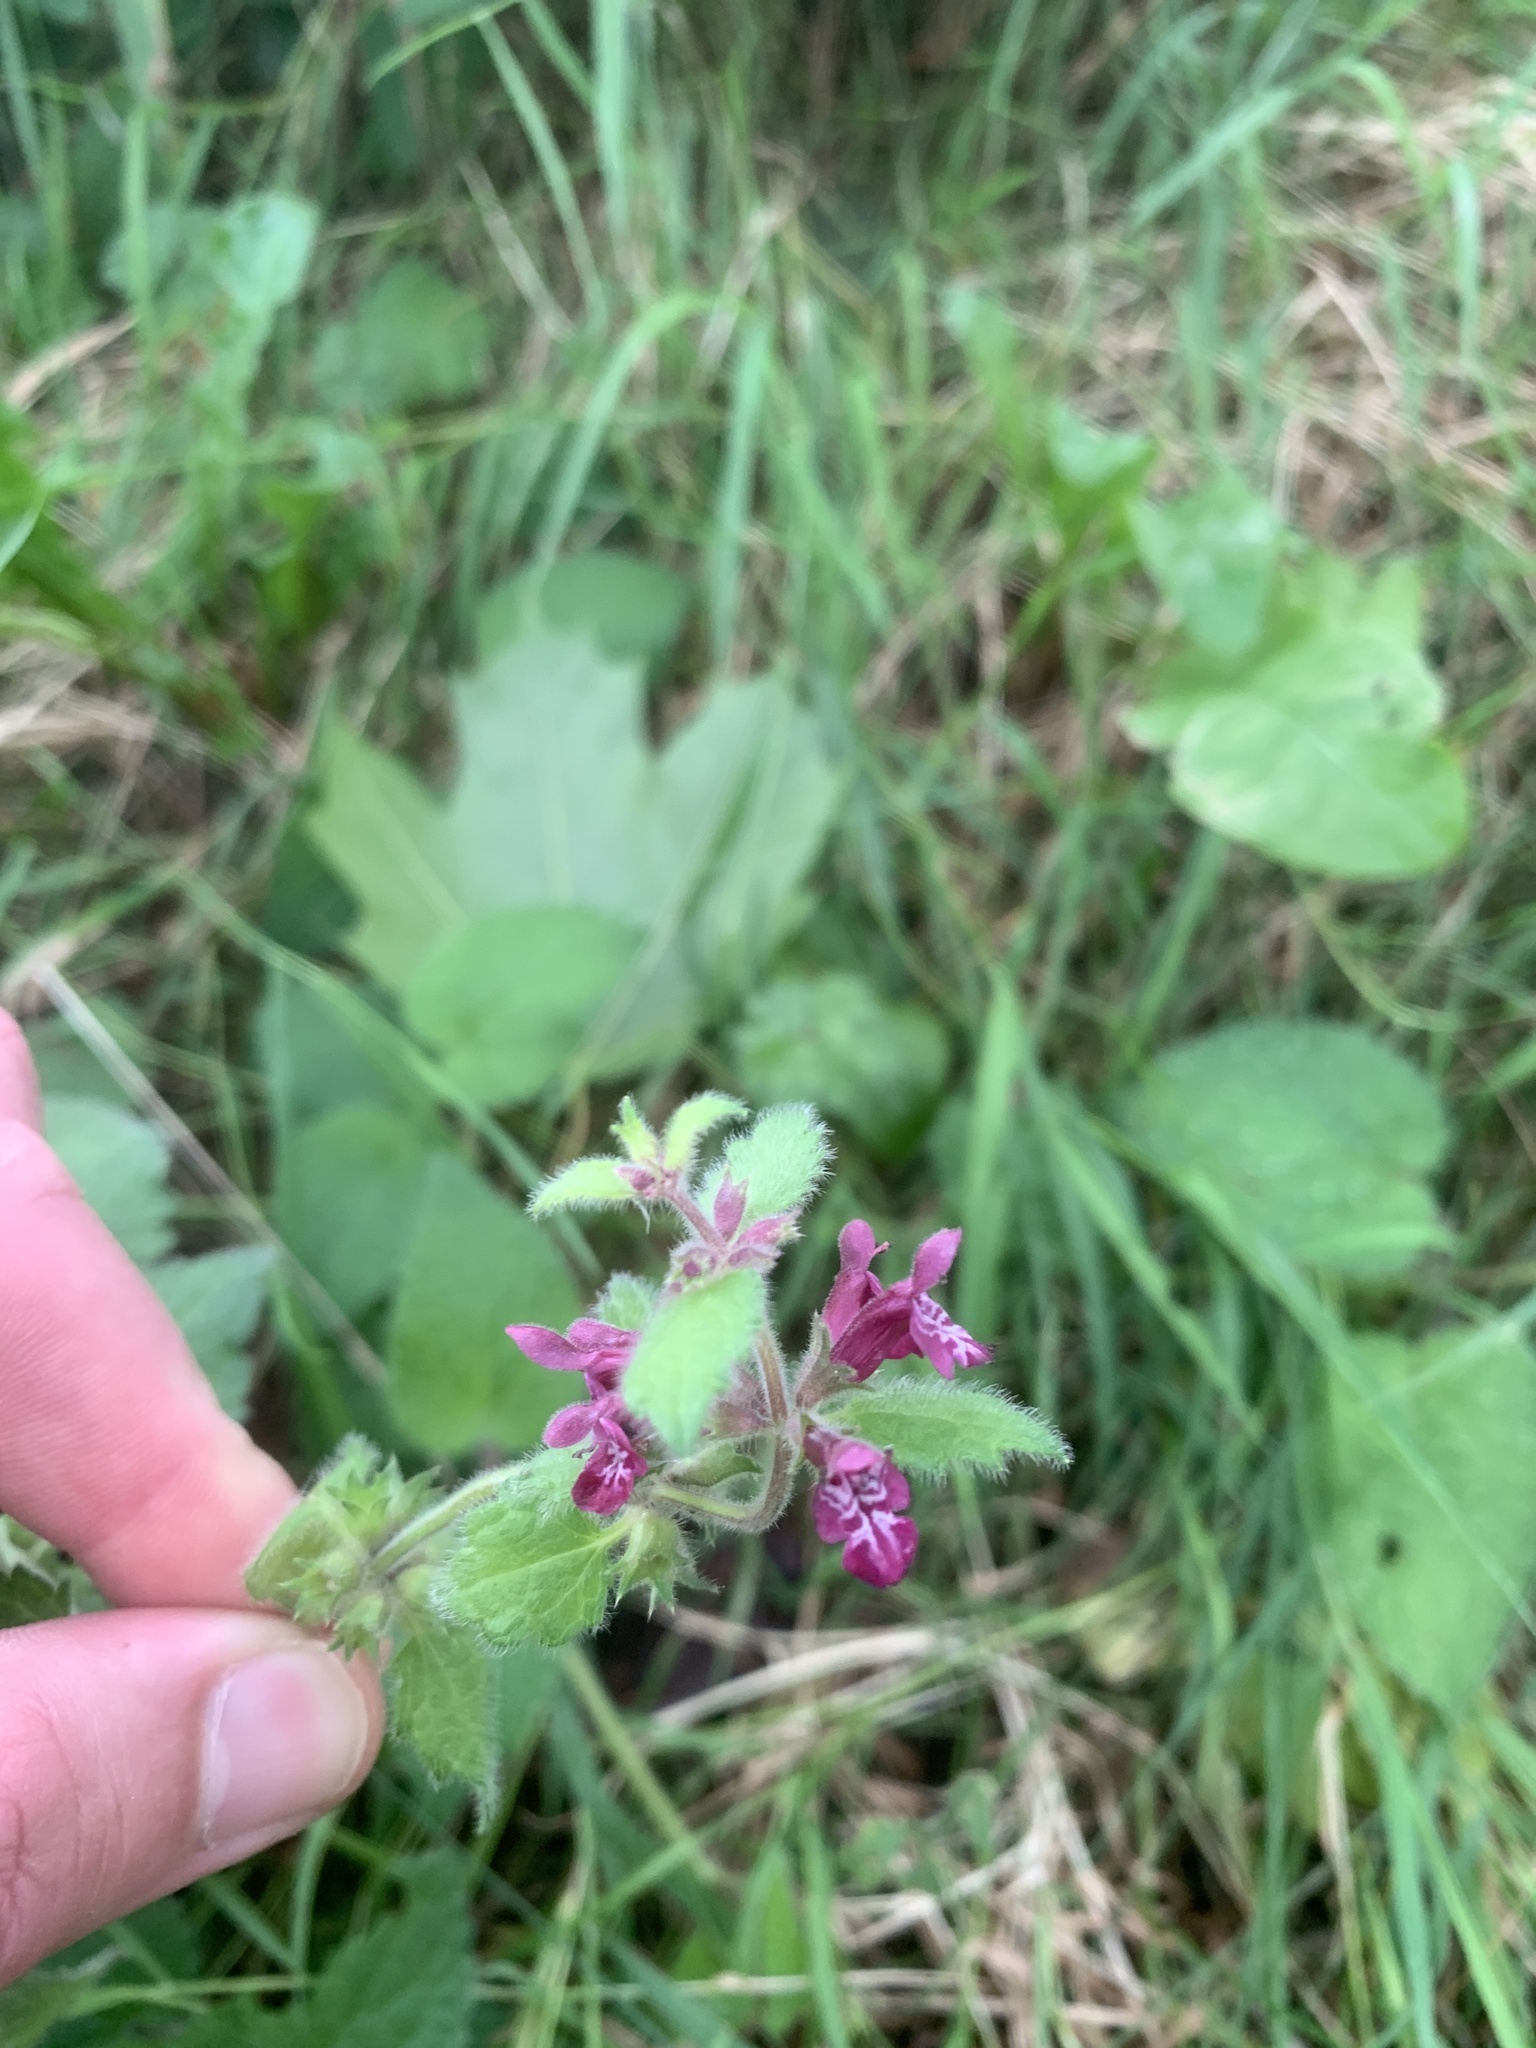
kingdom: Plantae
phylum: Tracheophyta
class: Magnoliopsida
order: Lamiales
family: Lamiaceae
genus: Stachys
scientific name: Stachys sylvatica
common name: Hedge woundwort
